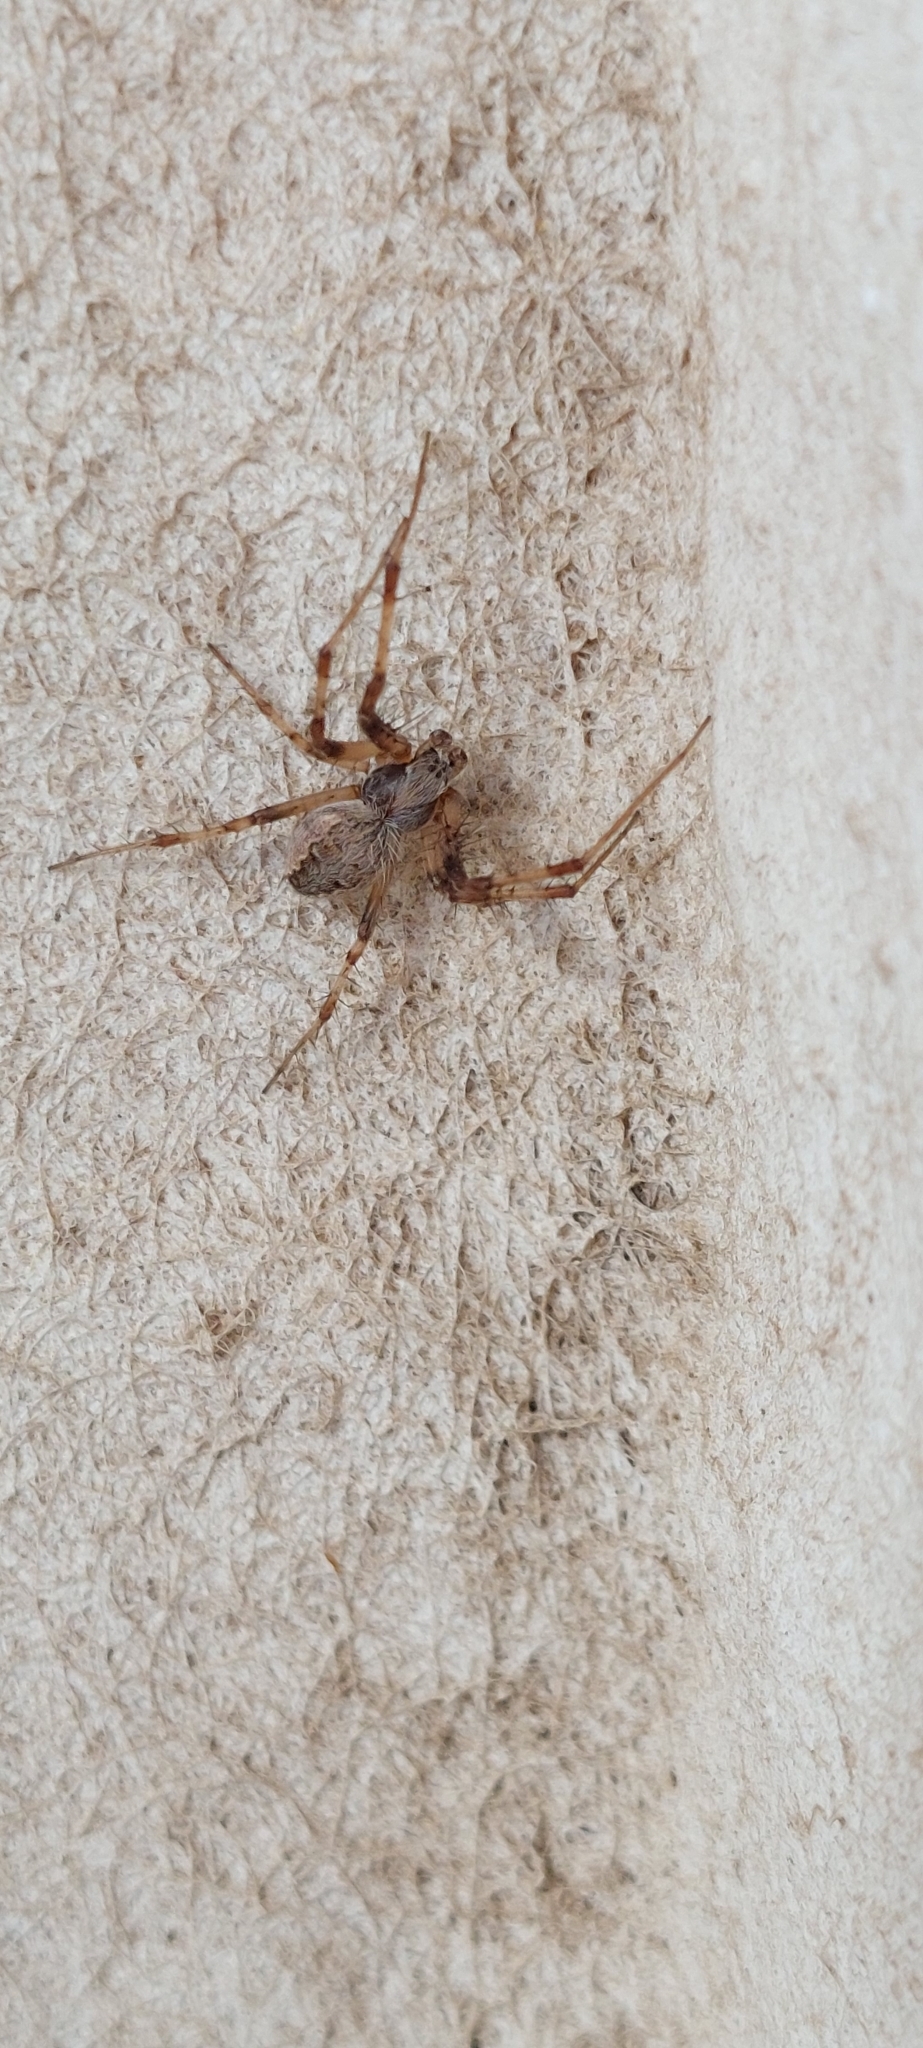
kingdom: Animalia
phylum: Arthropoda
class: Arachnida
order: Araneae
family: Araneidae
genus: Metepeira
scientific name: Metepeira
